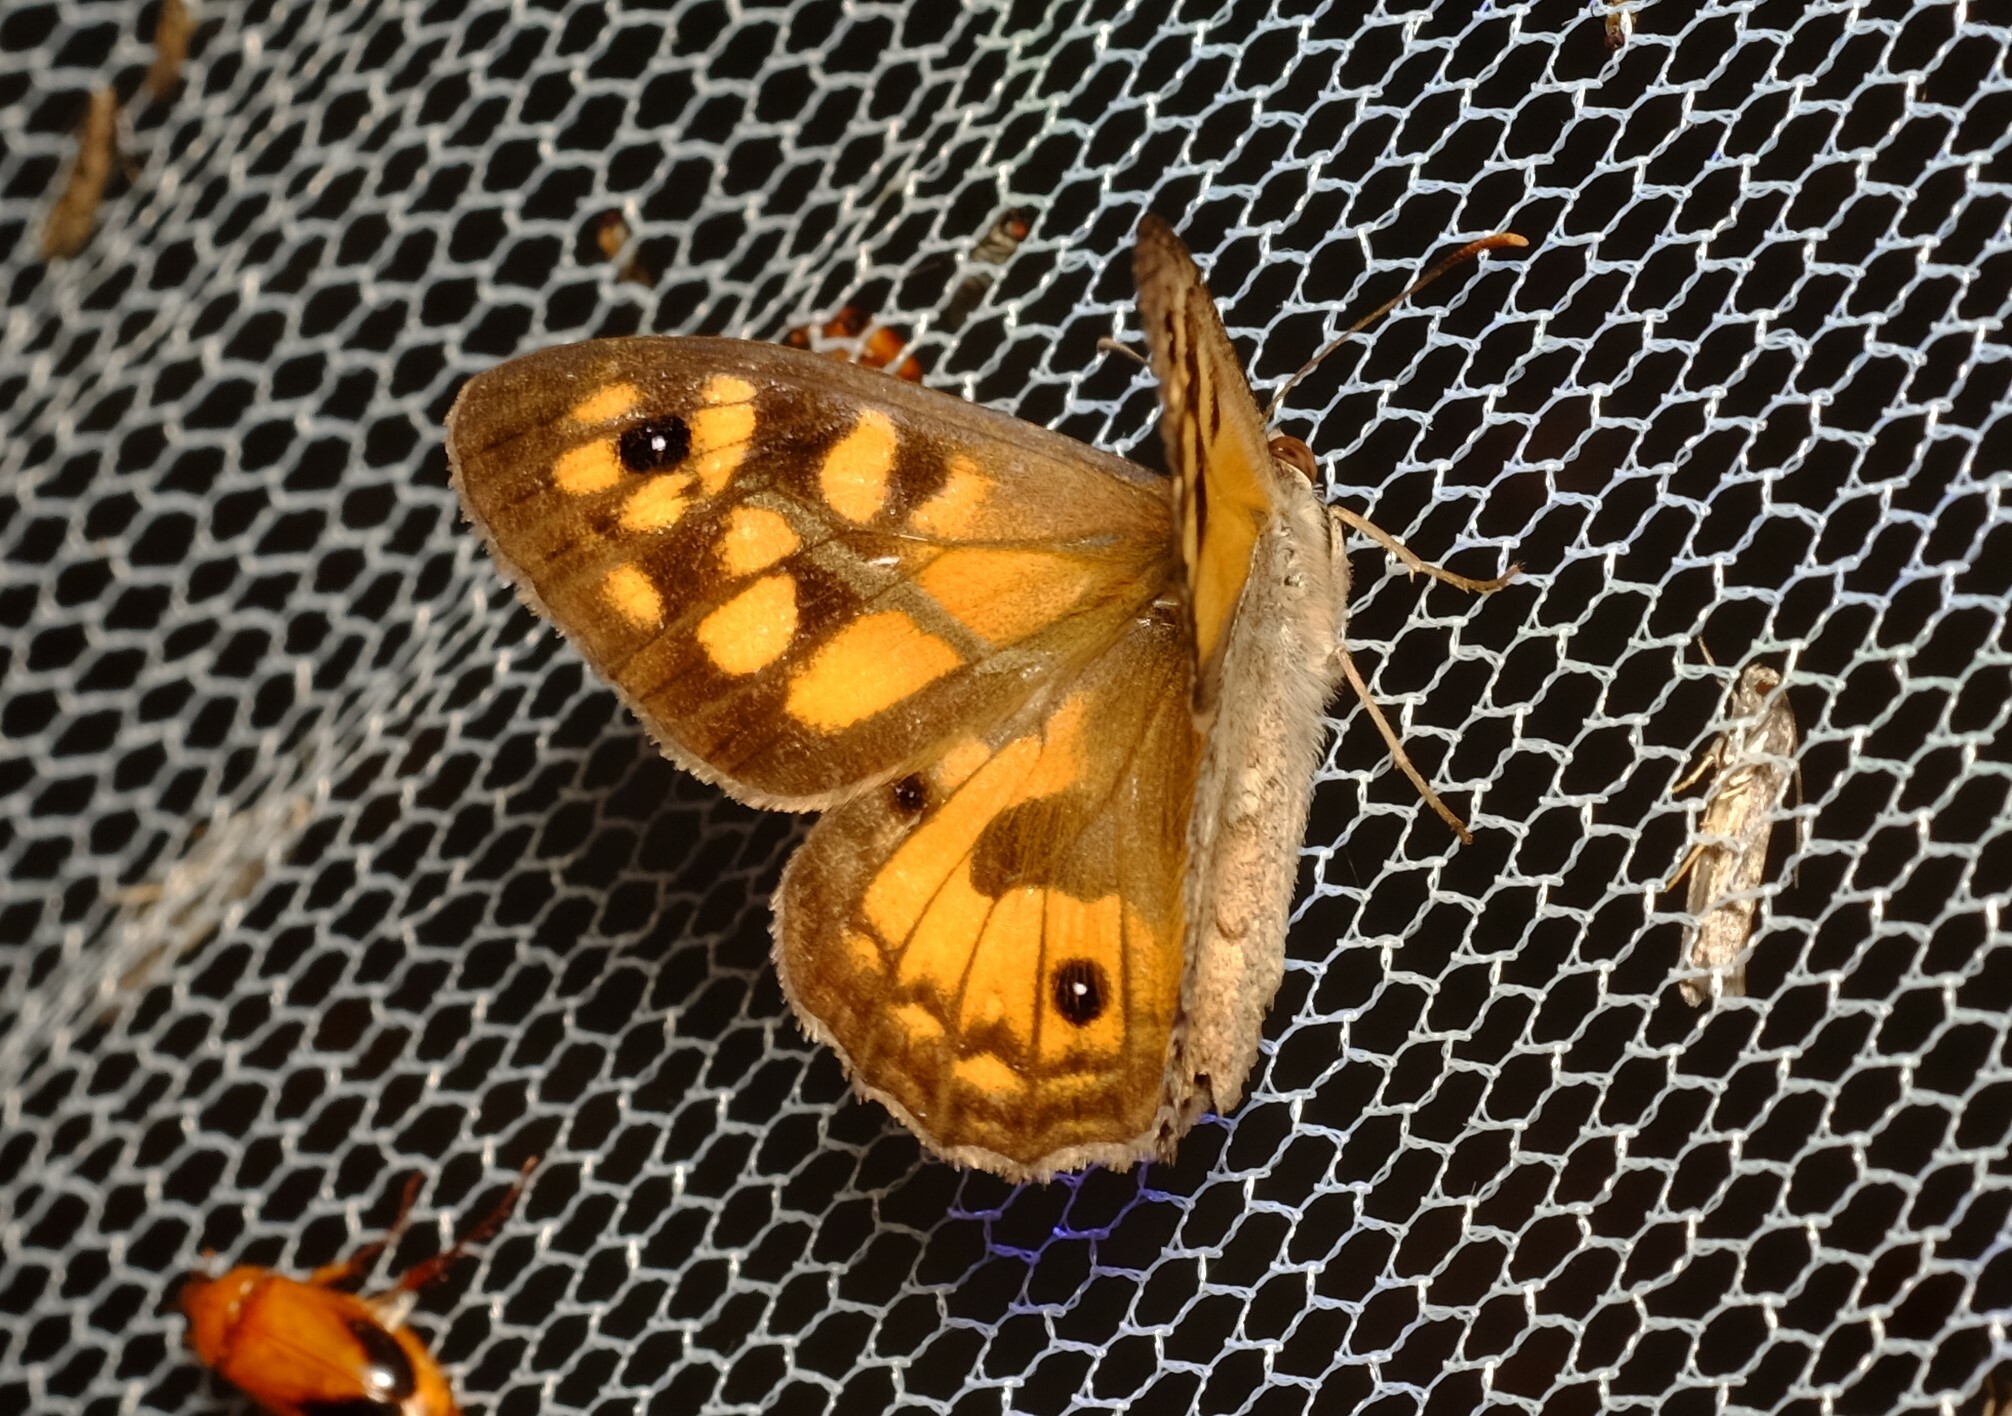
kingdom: Animalia
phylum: Arthropoda
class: Insecta
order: Lepidoptera
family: Nymphalidae
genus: Geitoneura
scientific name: Geitoneura klugii
